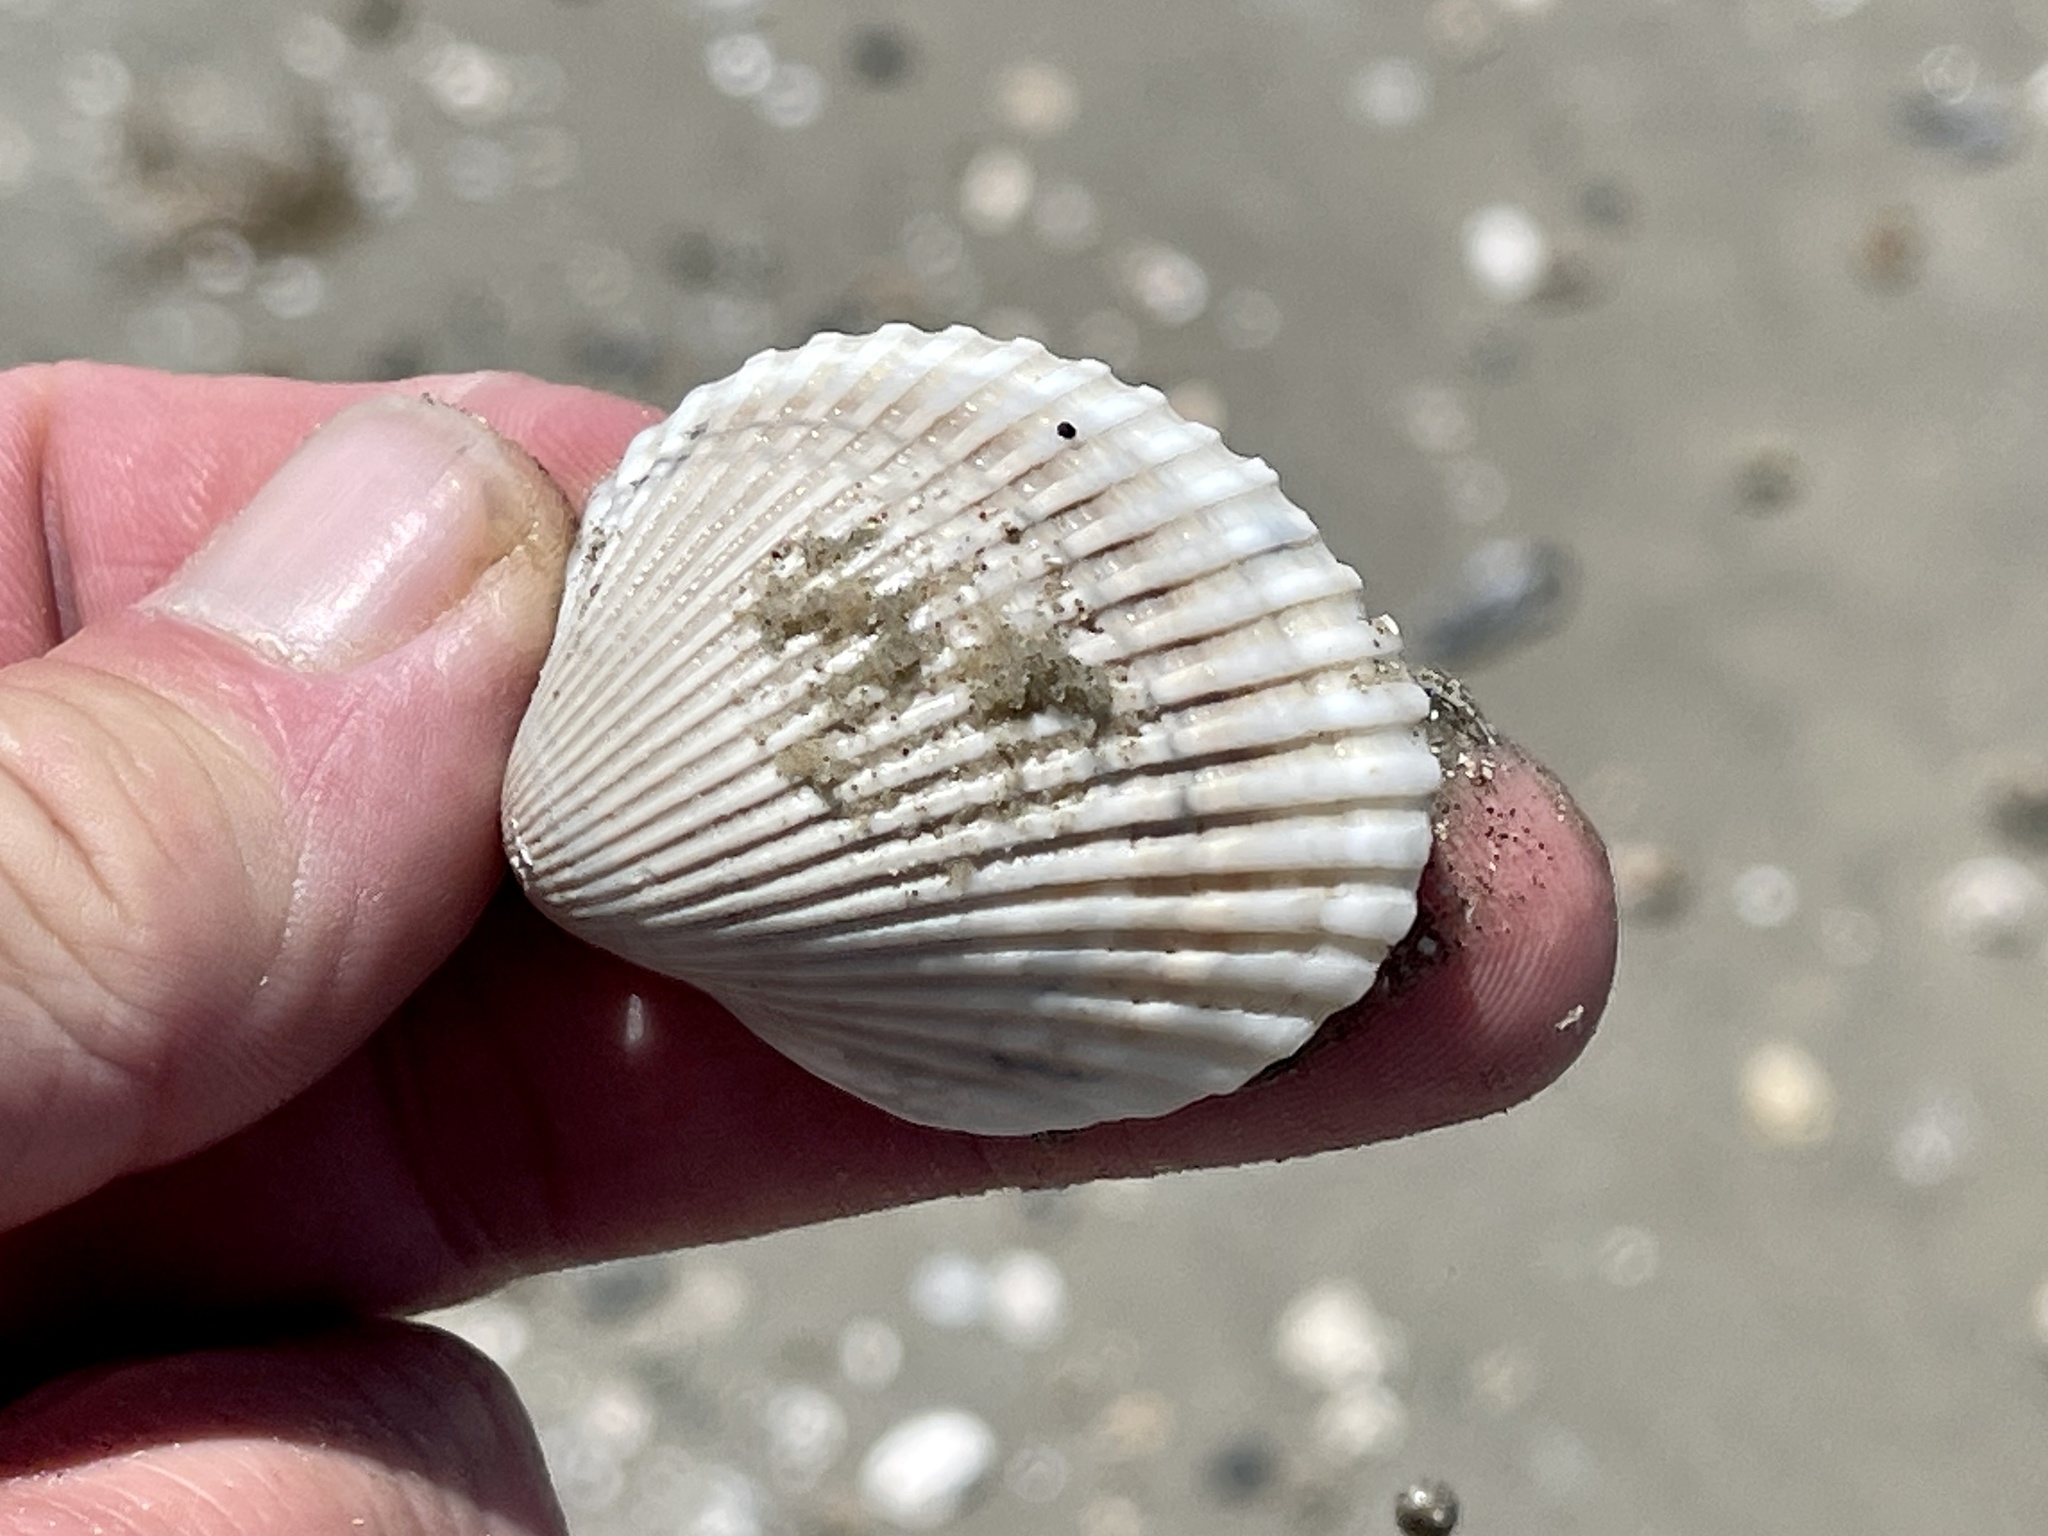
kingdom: Animalia
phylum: Mollusca
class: Bivalvia
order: Arcida
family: Arcidae
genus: Lunarca
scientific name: Lunarca ovalis
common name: Blood ark
